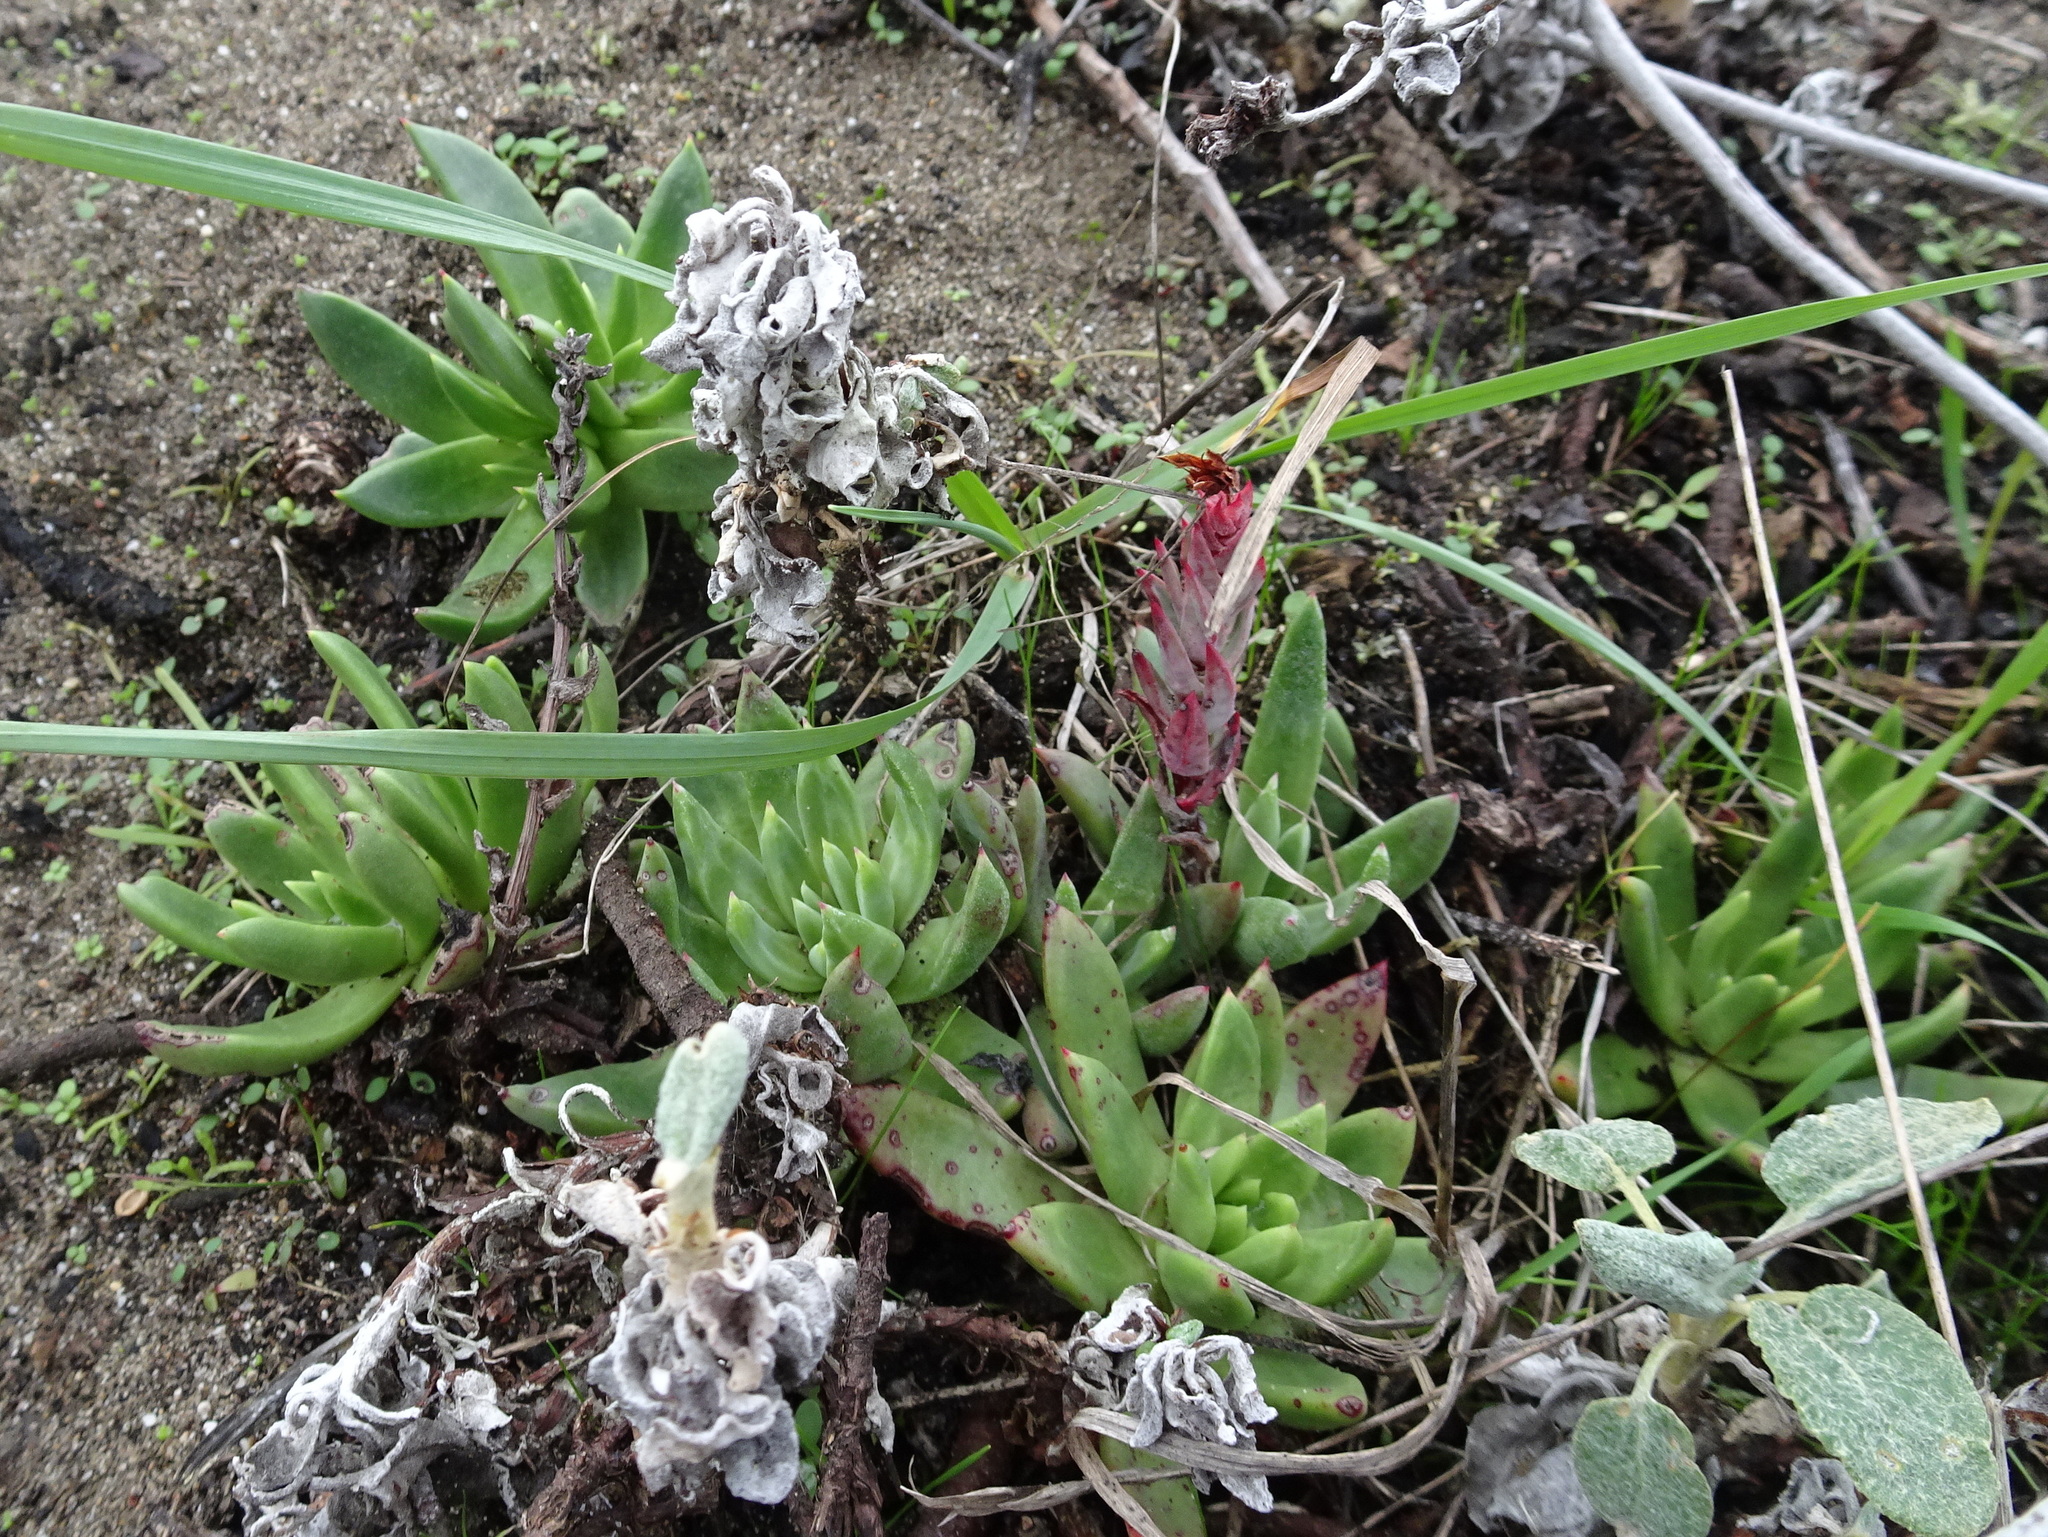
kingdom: Plantae
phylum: Tracheophyta
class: Magnoliopsida
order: Saxifragales
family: Crassulaceae
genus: Dudleya
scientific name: Dudleya farinosa
